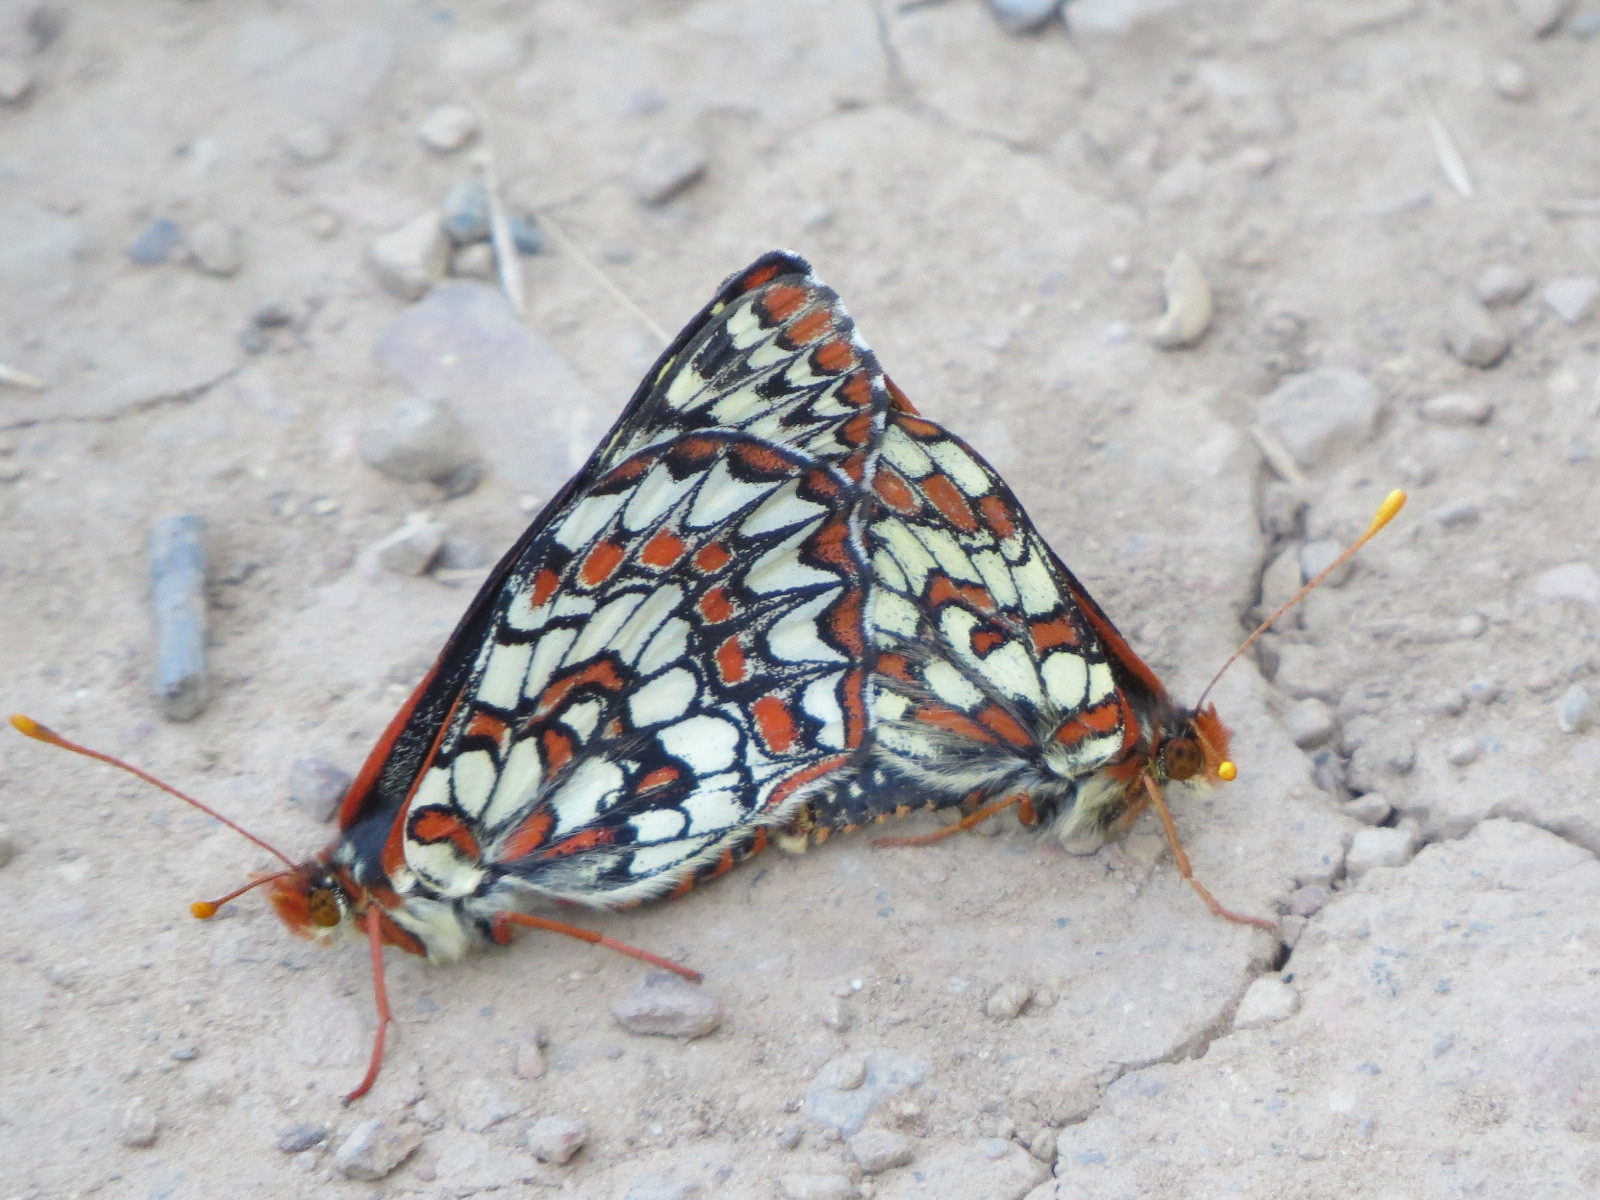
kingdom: Animalia
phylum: Arthropoda
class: Insecta
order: Lepidoptera
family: Nymphalidae
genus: Occidryas
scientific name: Occidryas chalcedona
